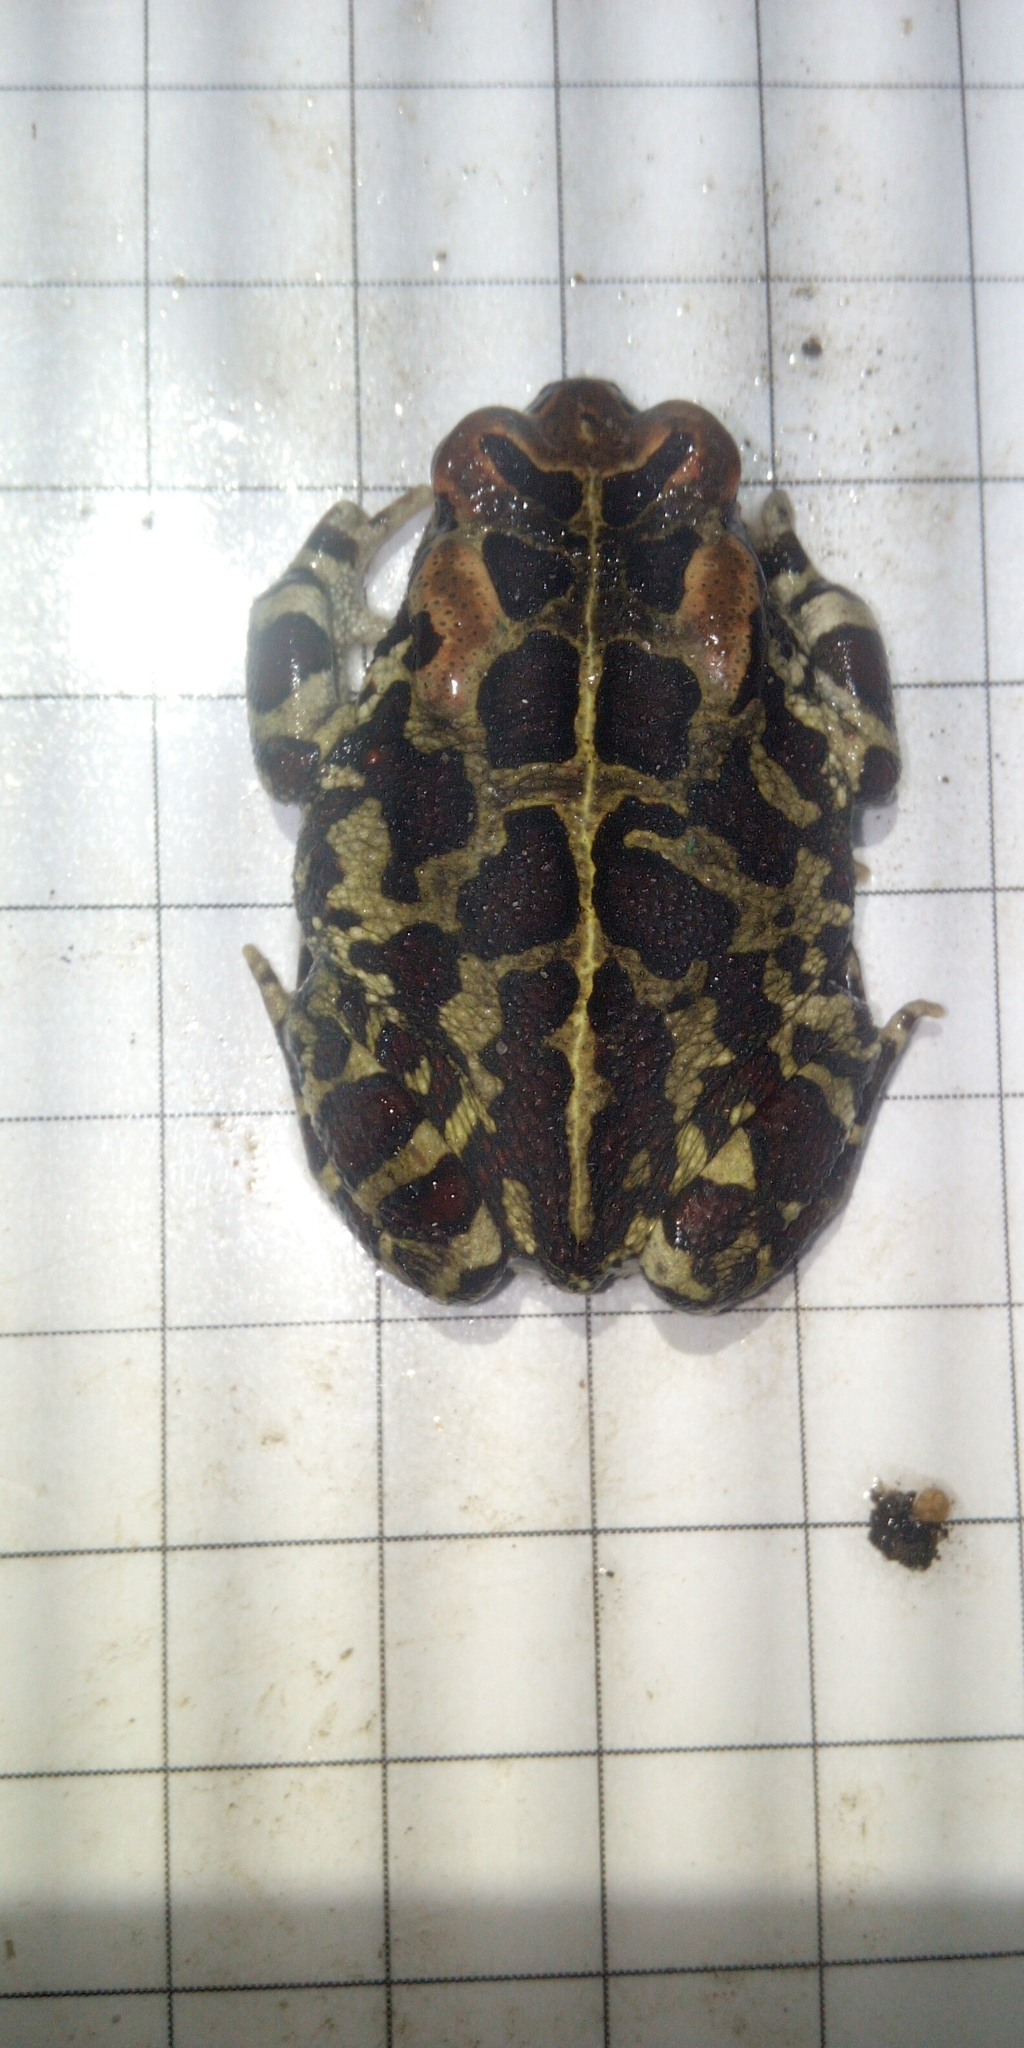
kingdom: Animalia
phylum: Chordata
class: Amphibia
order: Anura
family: Bufonidae
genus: Sclerophrys
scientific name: Sclerophrys pantherina
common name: Panther toad
